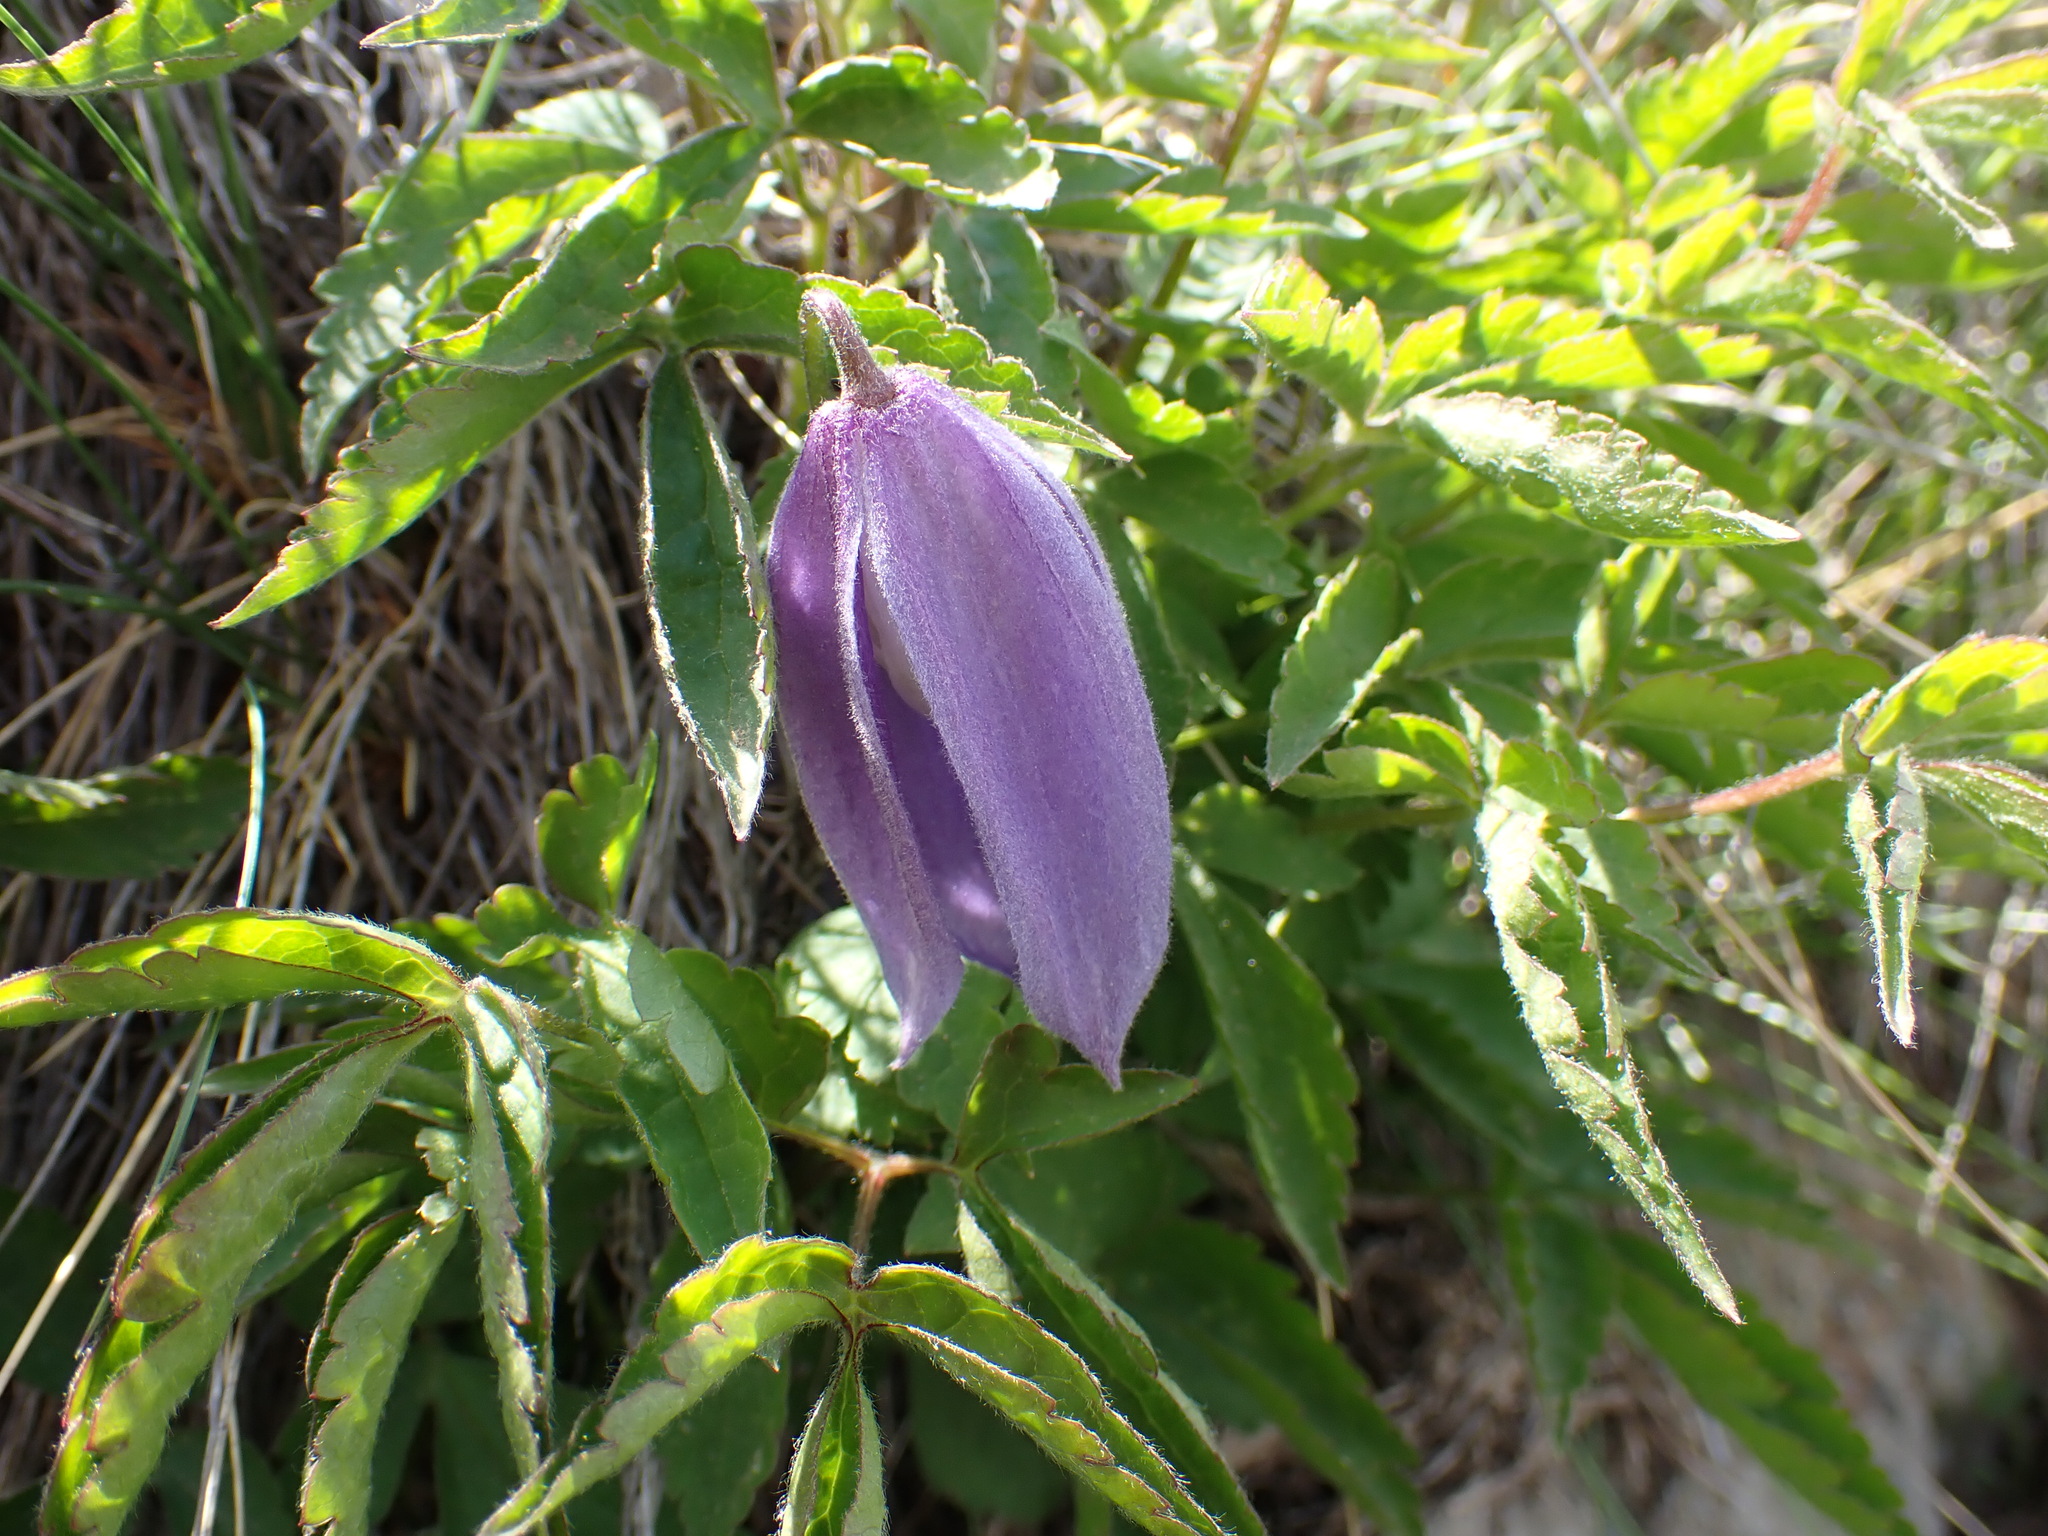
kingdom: Plantae
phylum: Tracheophyta
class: Magnoliopsida
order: Ranunculales
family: Ranunculaceae
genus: Clematis
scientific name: Clematis alpina
